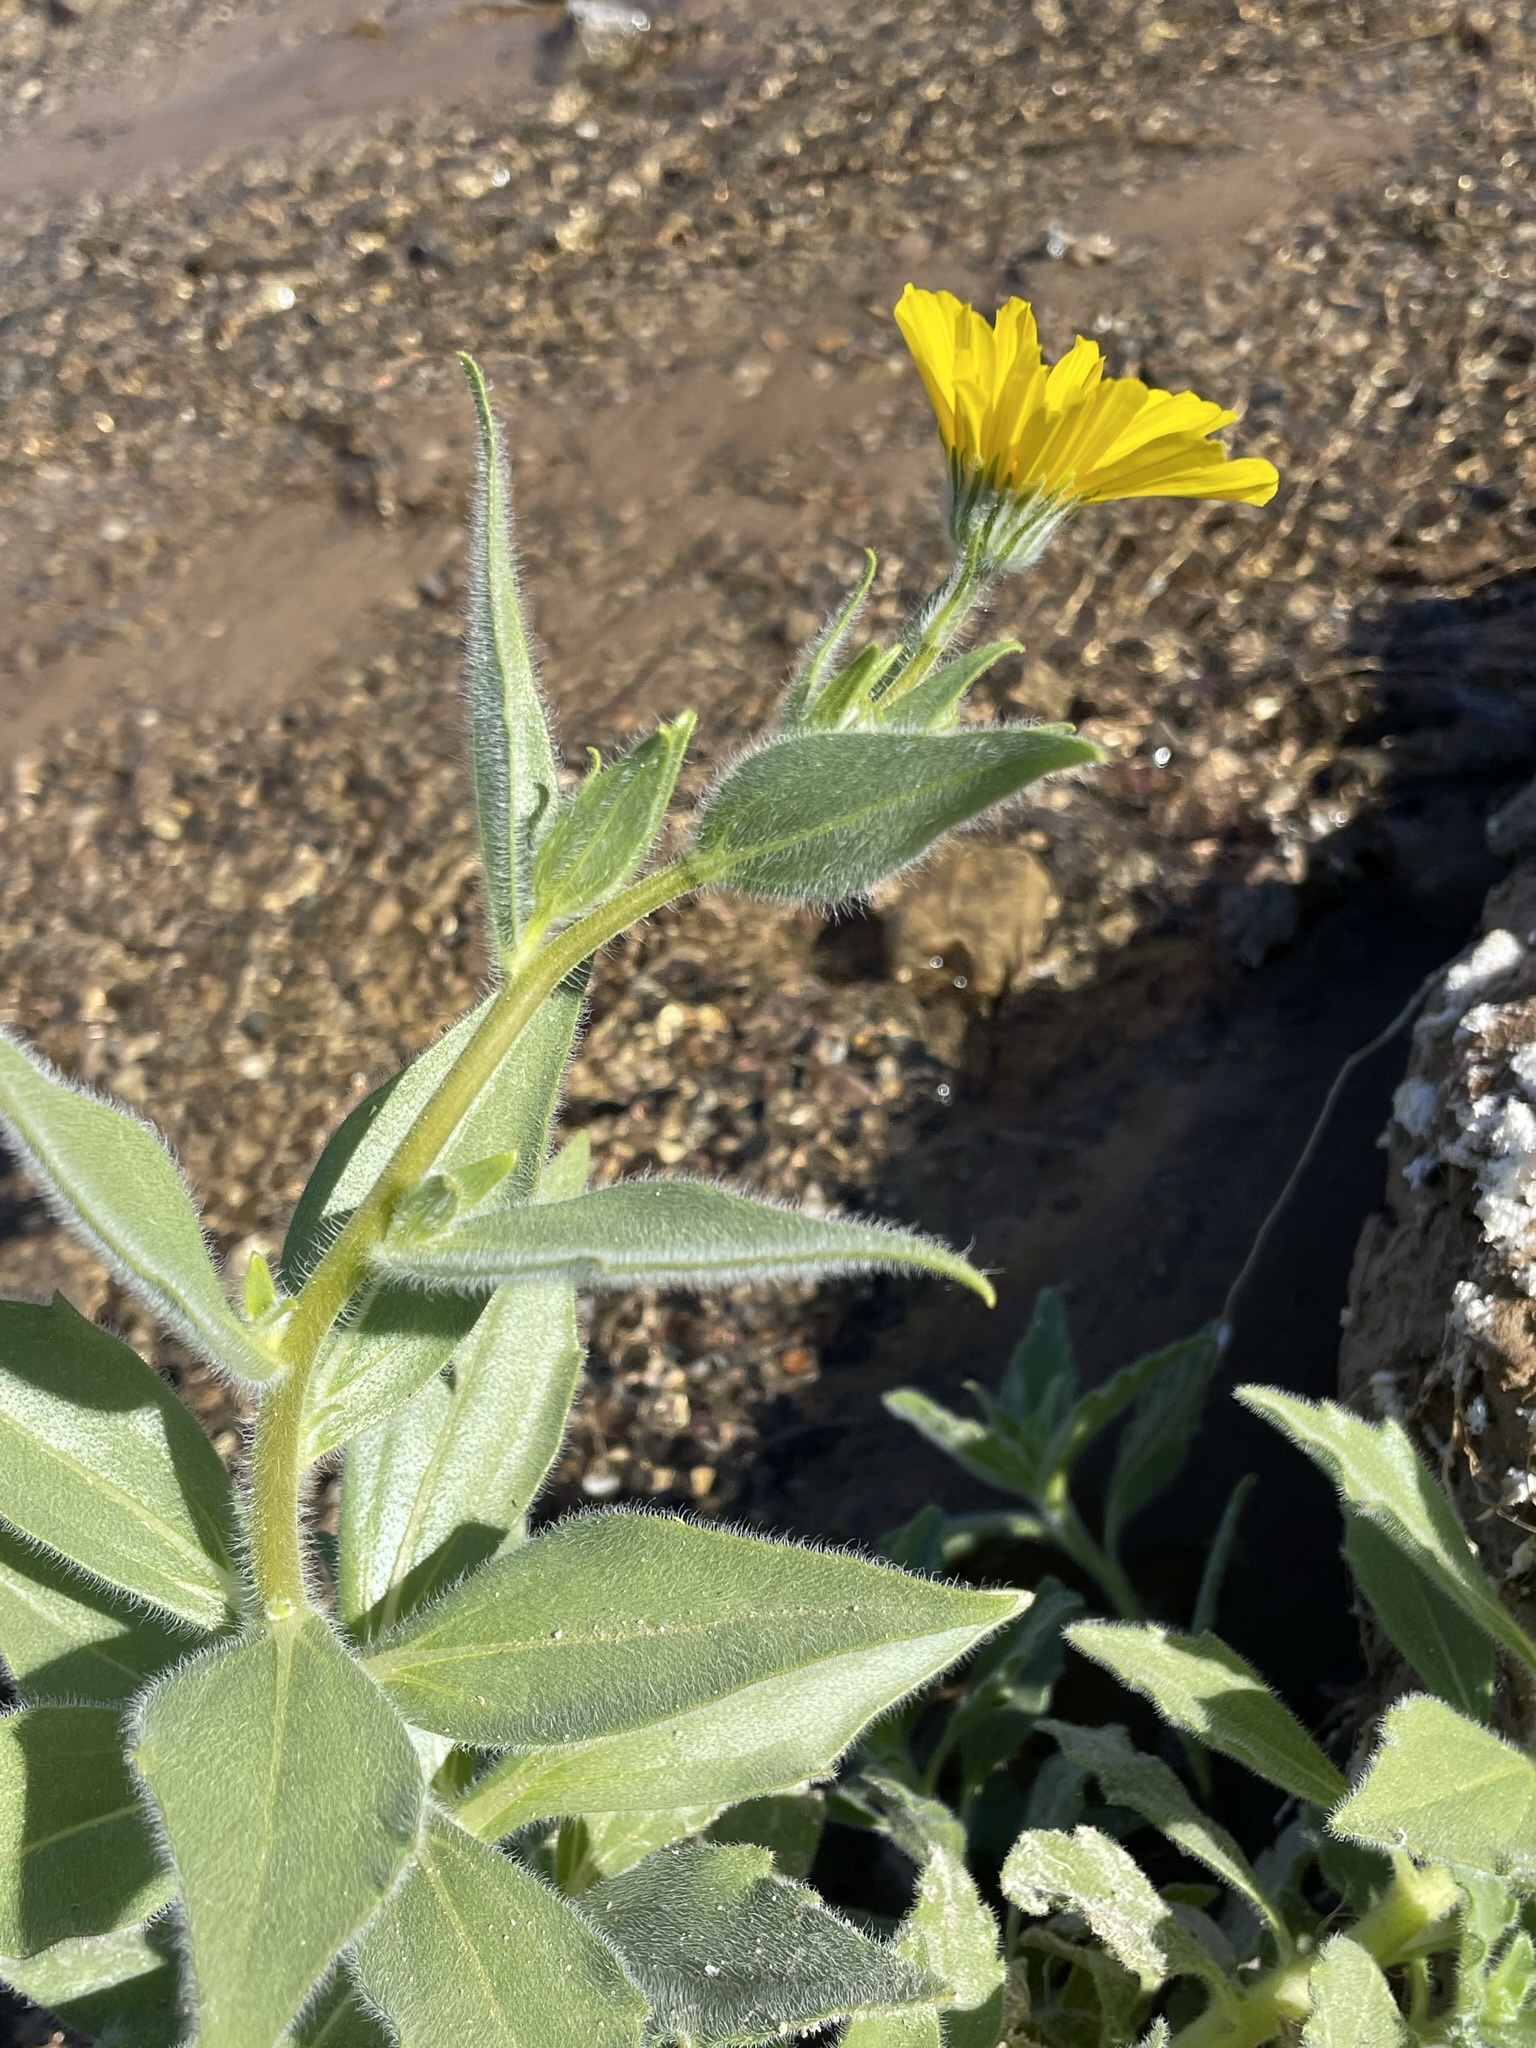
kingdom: Plantae
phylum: Tracheophyta
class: Magnoliopsida
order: Asterales
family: Asteraceae
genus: Geraea
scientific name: Geraea canescens
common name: Desert-gold
